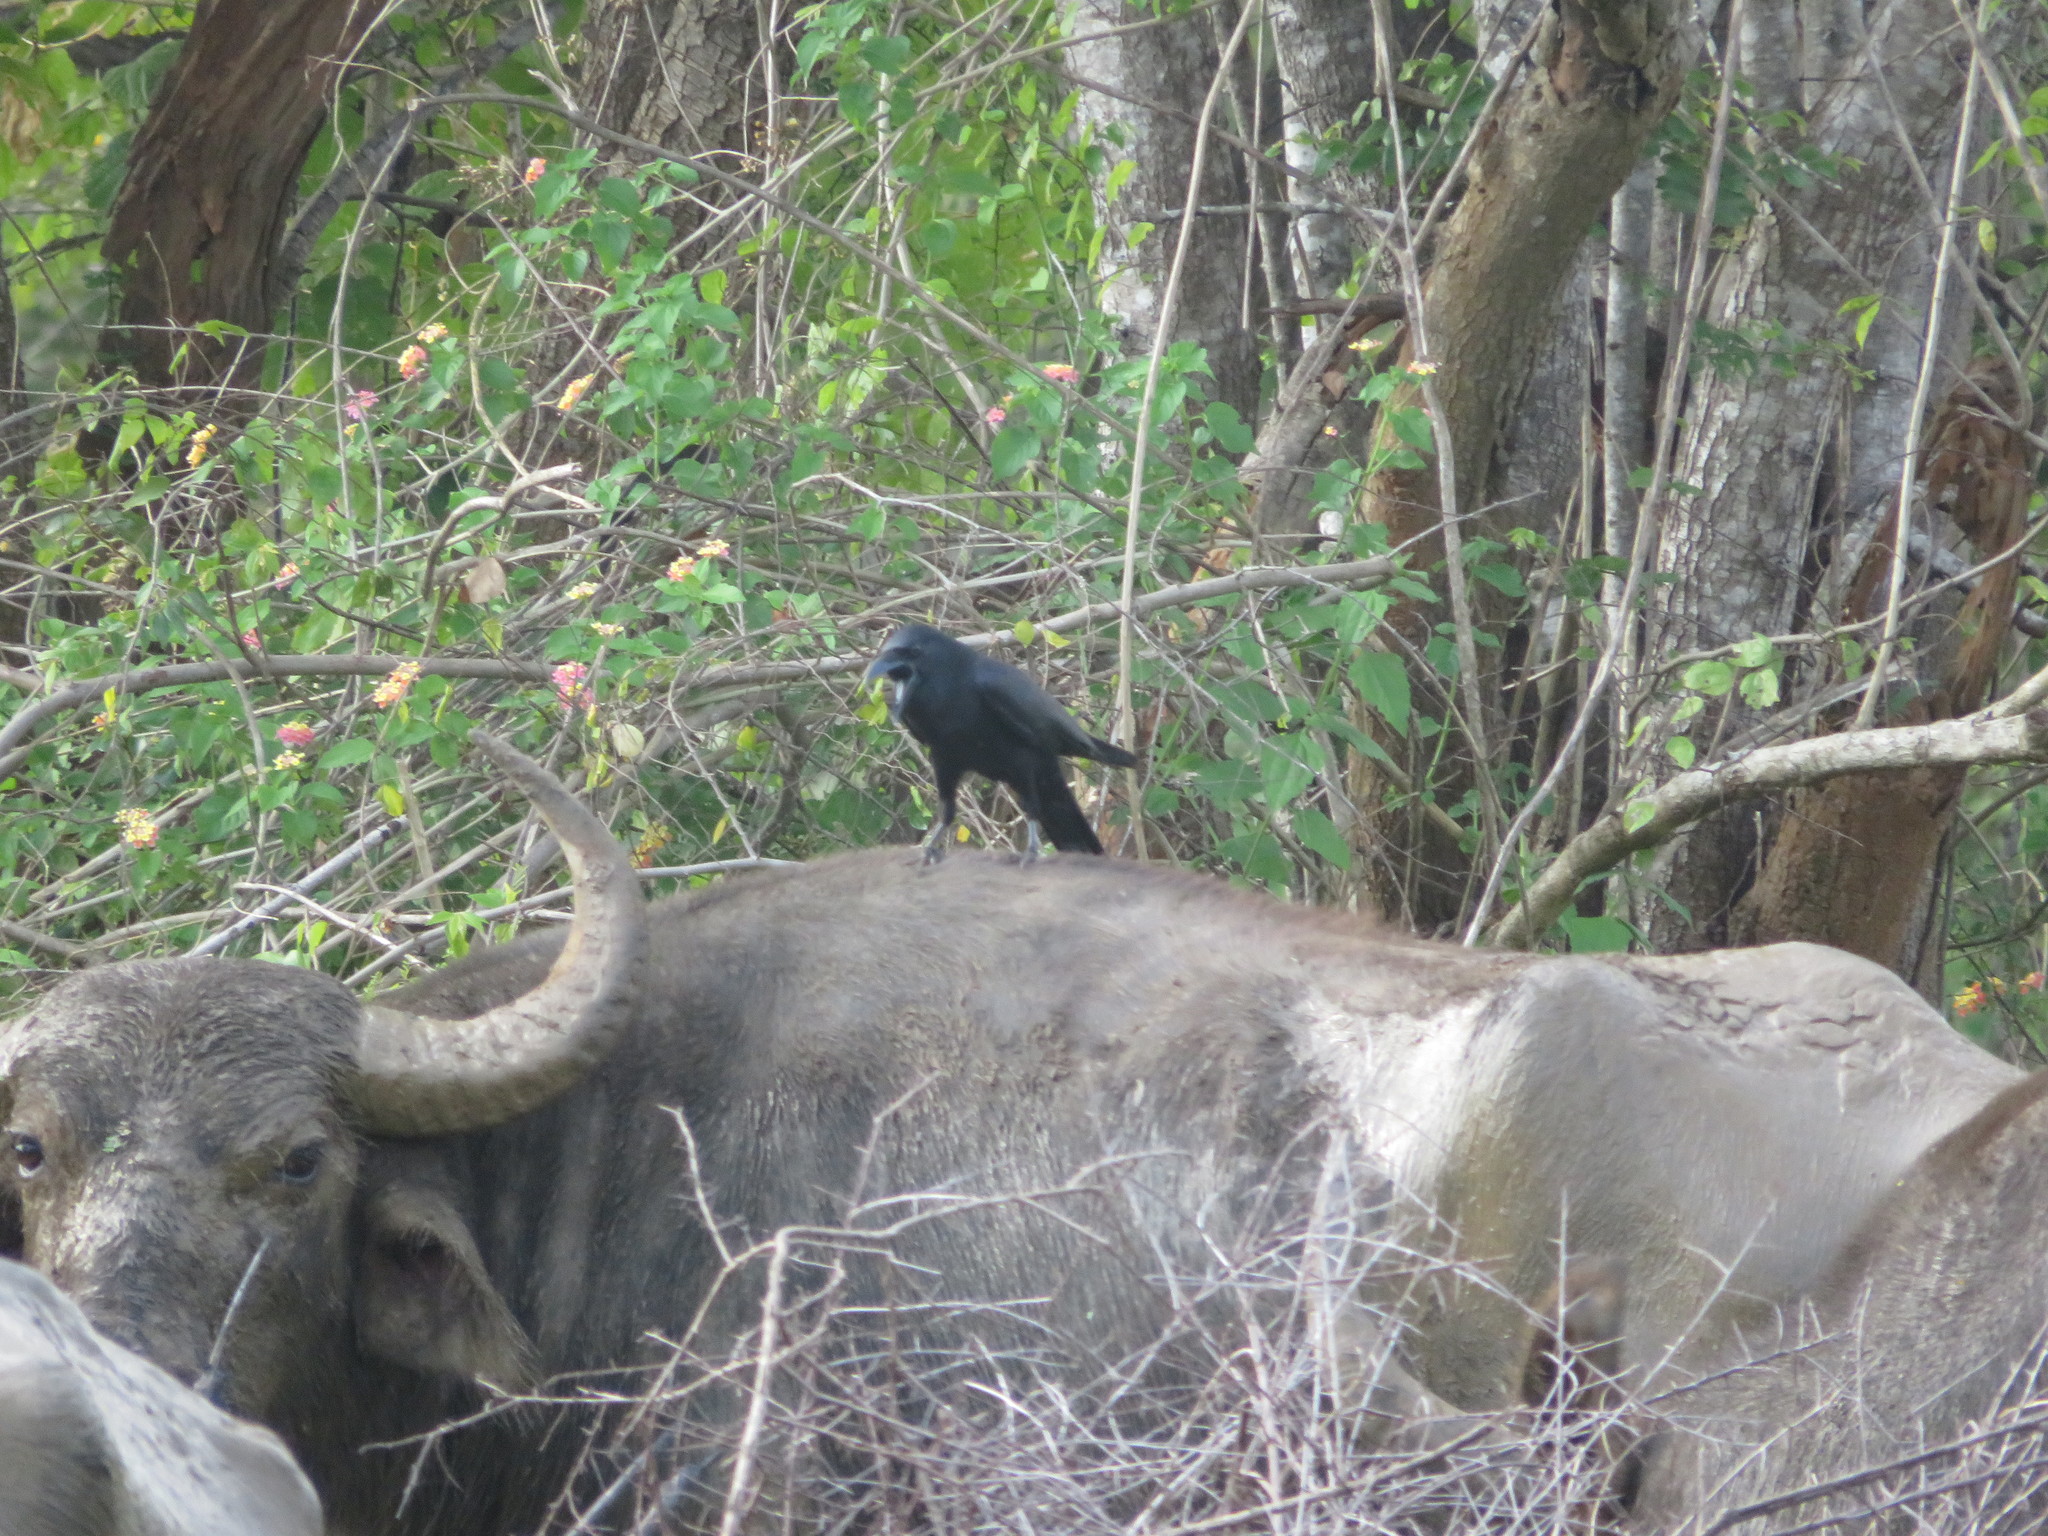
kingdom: Animalia
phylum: Chordata
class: Aves
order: Passeriformes
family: Corvidae
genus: Corvus
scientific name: Corvus macrorhynchos
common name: Large-billed crow
